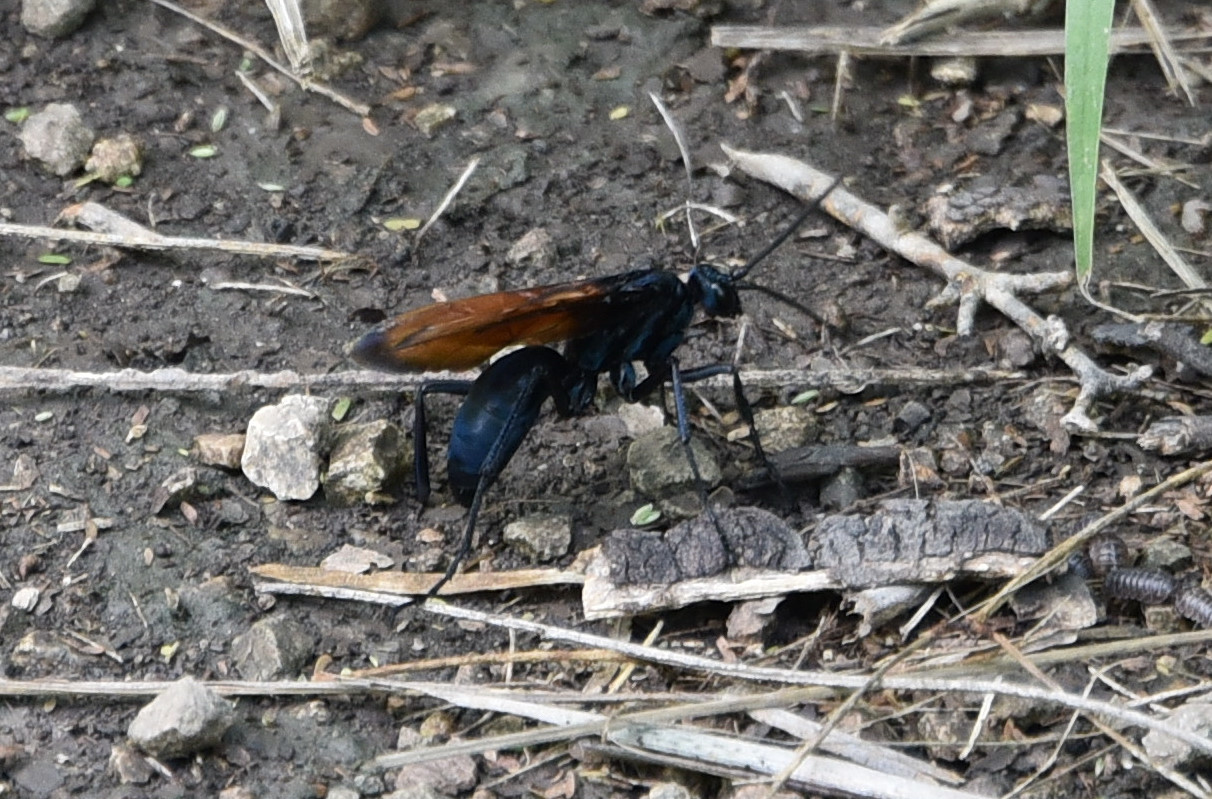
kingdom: Animalia
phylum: Arthropoda
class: Insecta
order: Hymenoptera
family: Pompilidae
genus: Pepsis
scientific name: Pepsis thisbe
